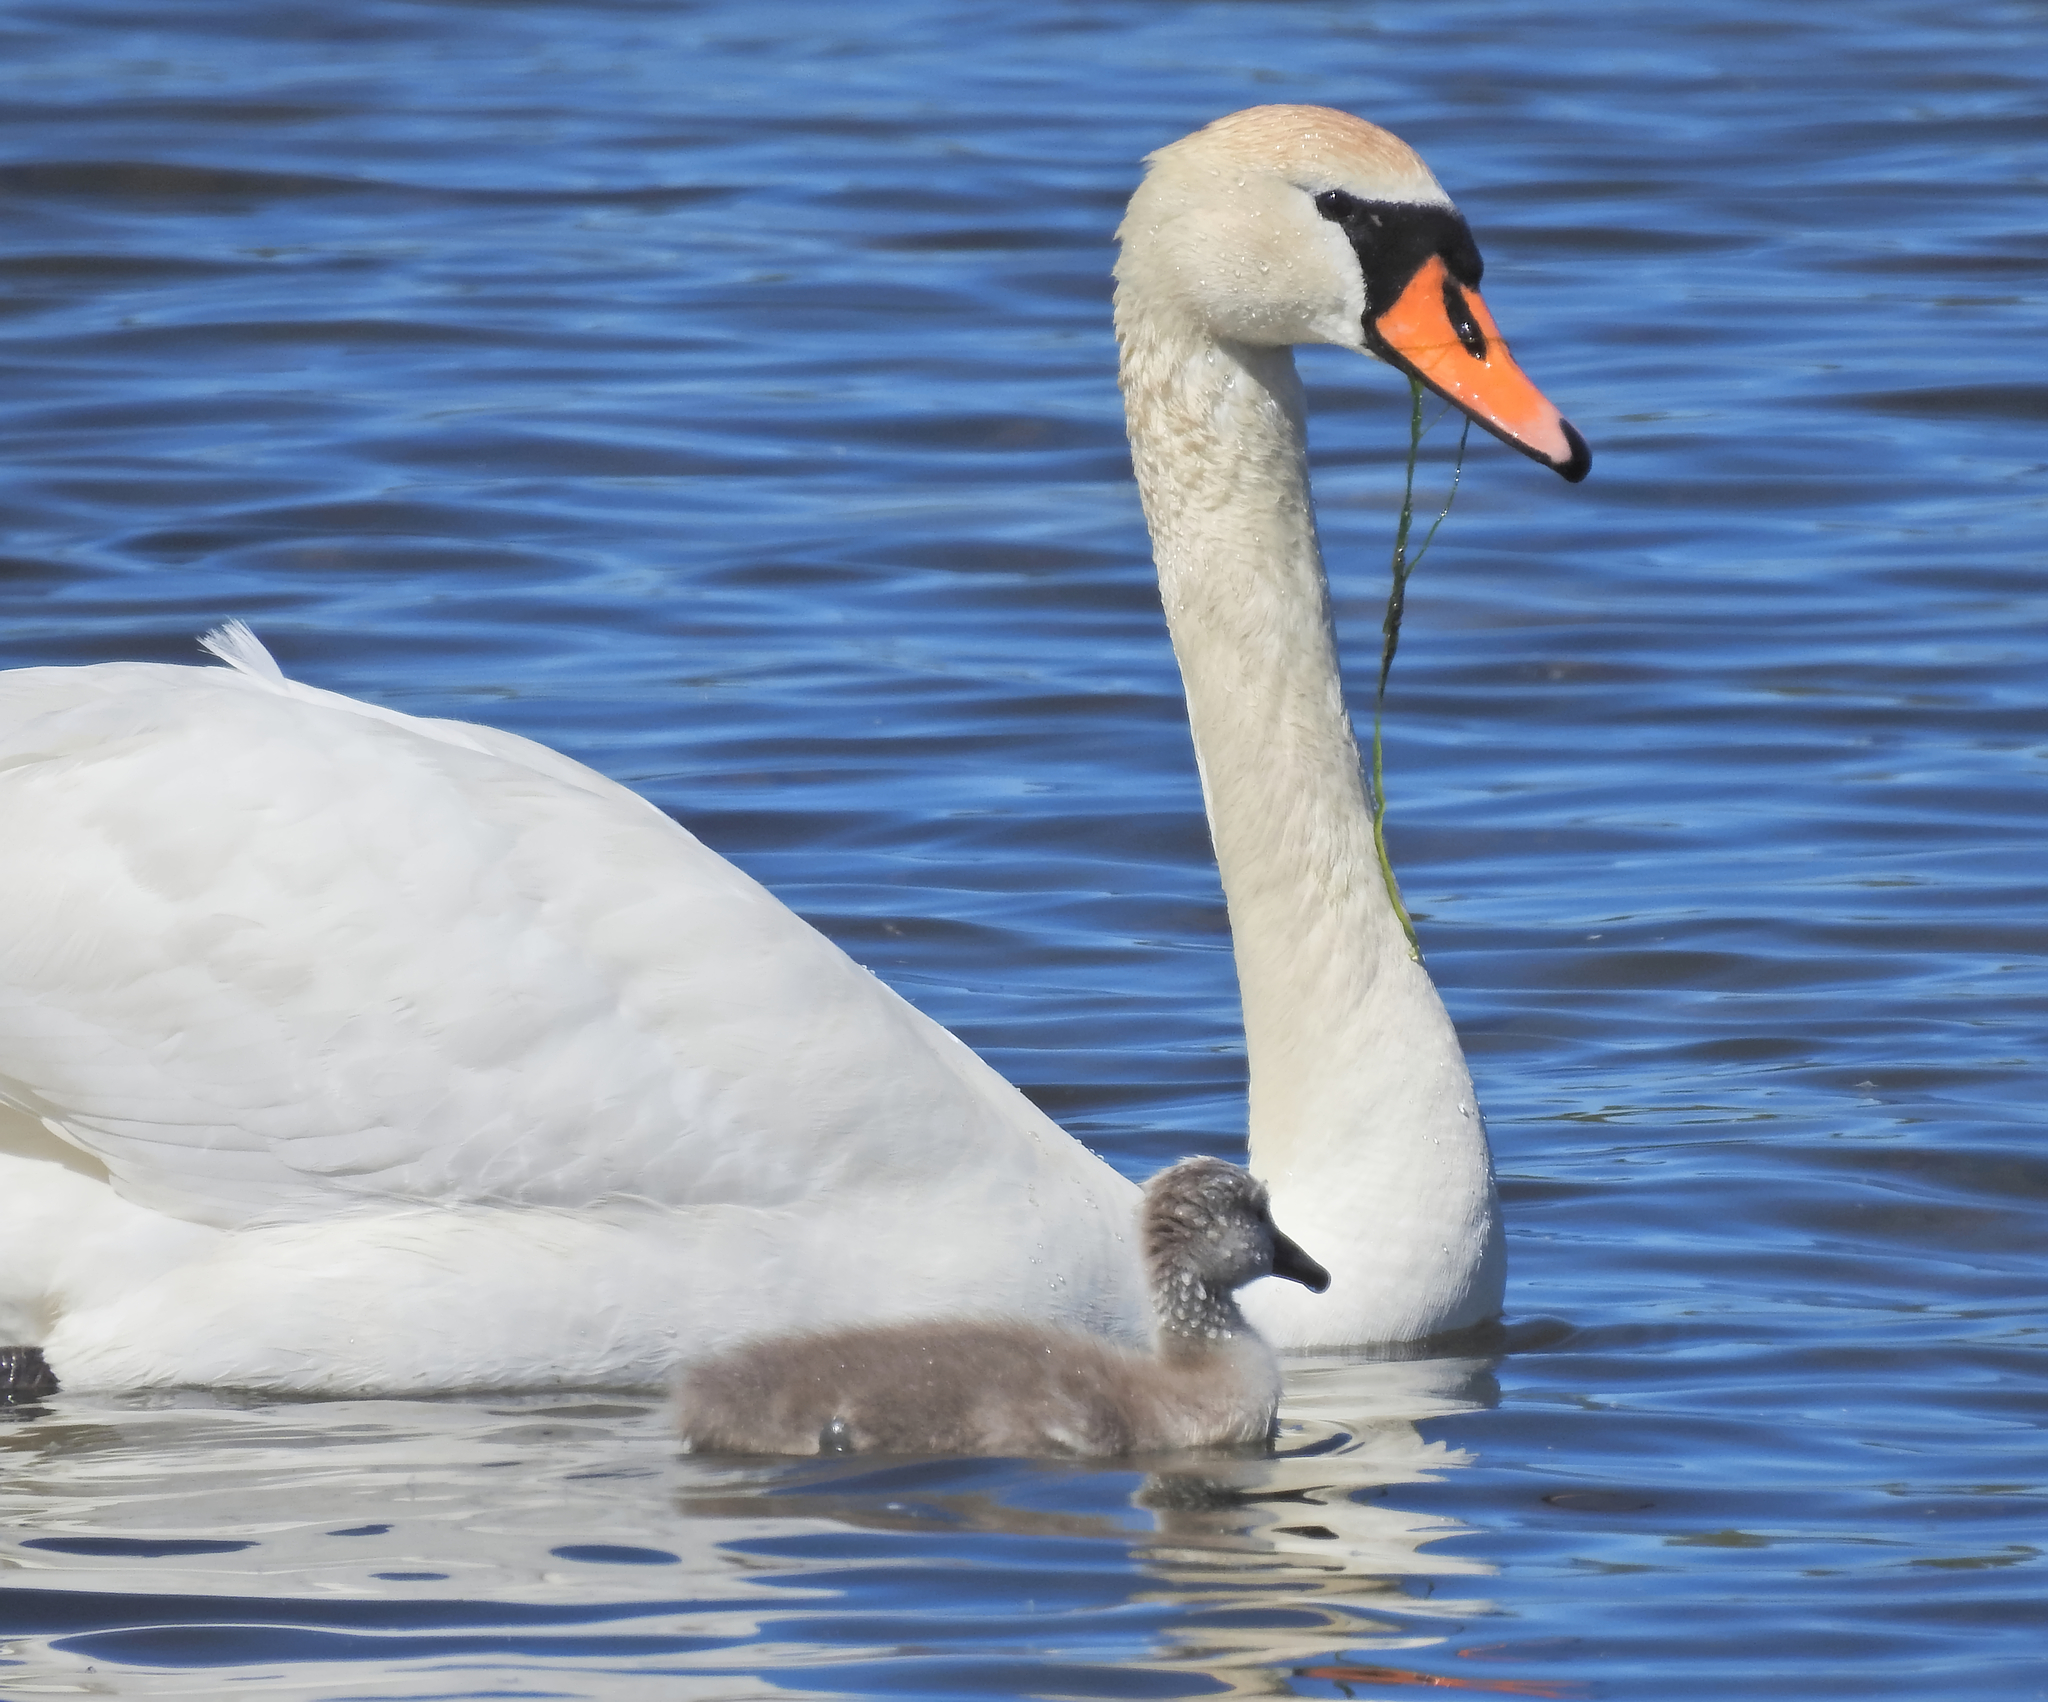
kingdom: Animalia
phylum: Chordata
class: Aves
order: Anseriformes
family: Anatidae
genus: Cygnus
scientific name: Cygnus olor
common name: Mute swan
